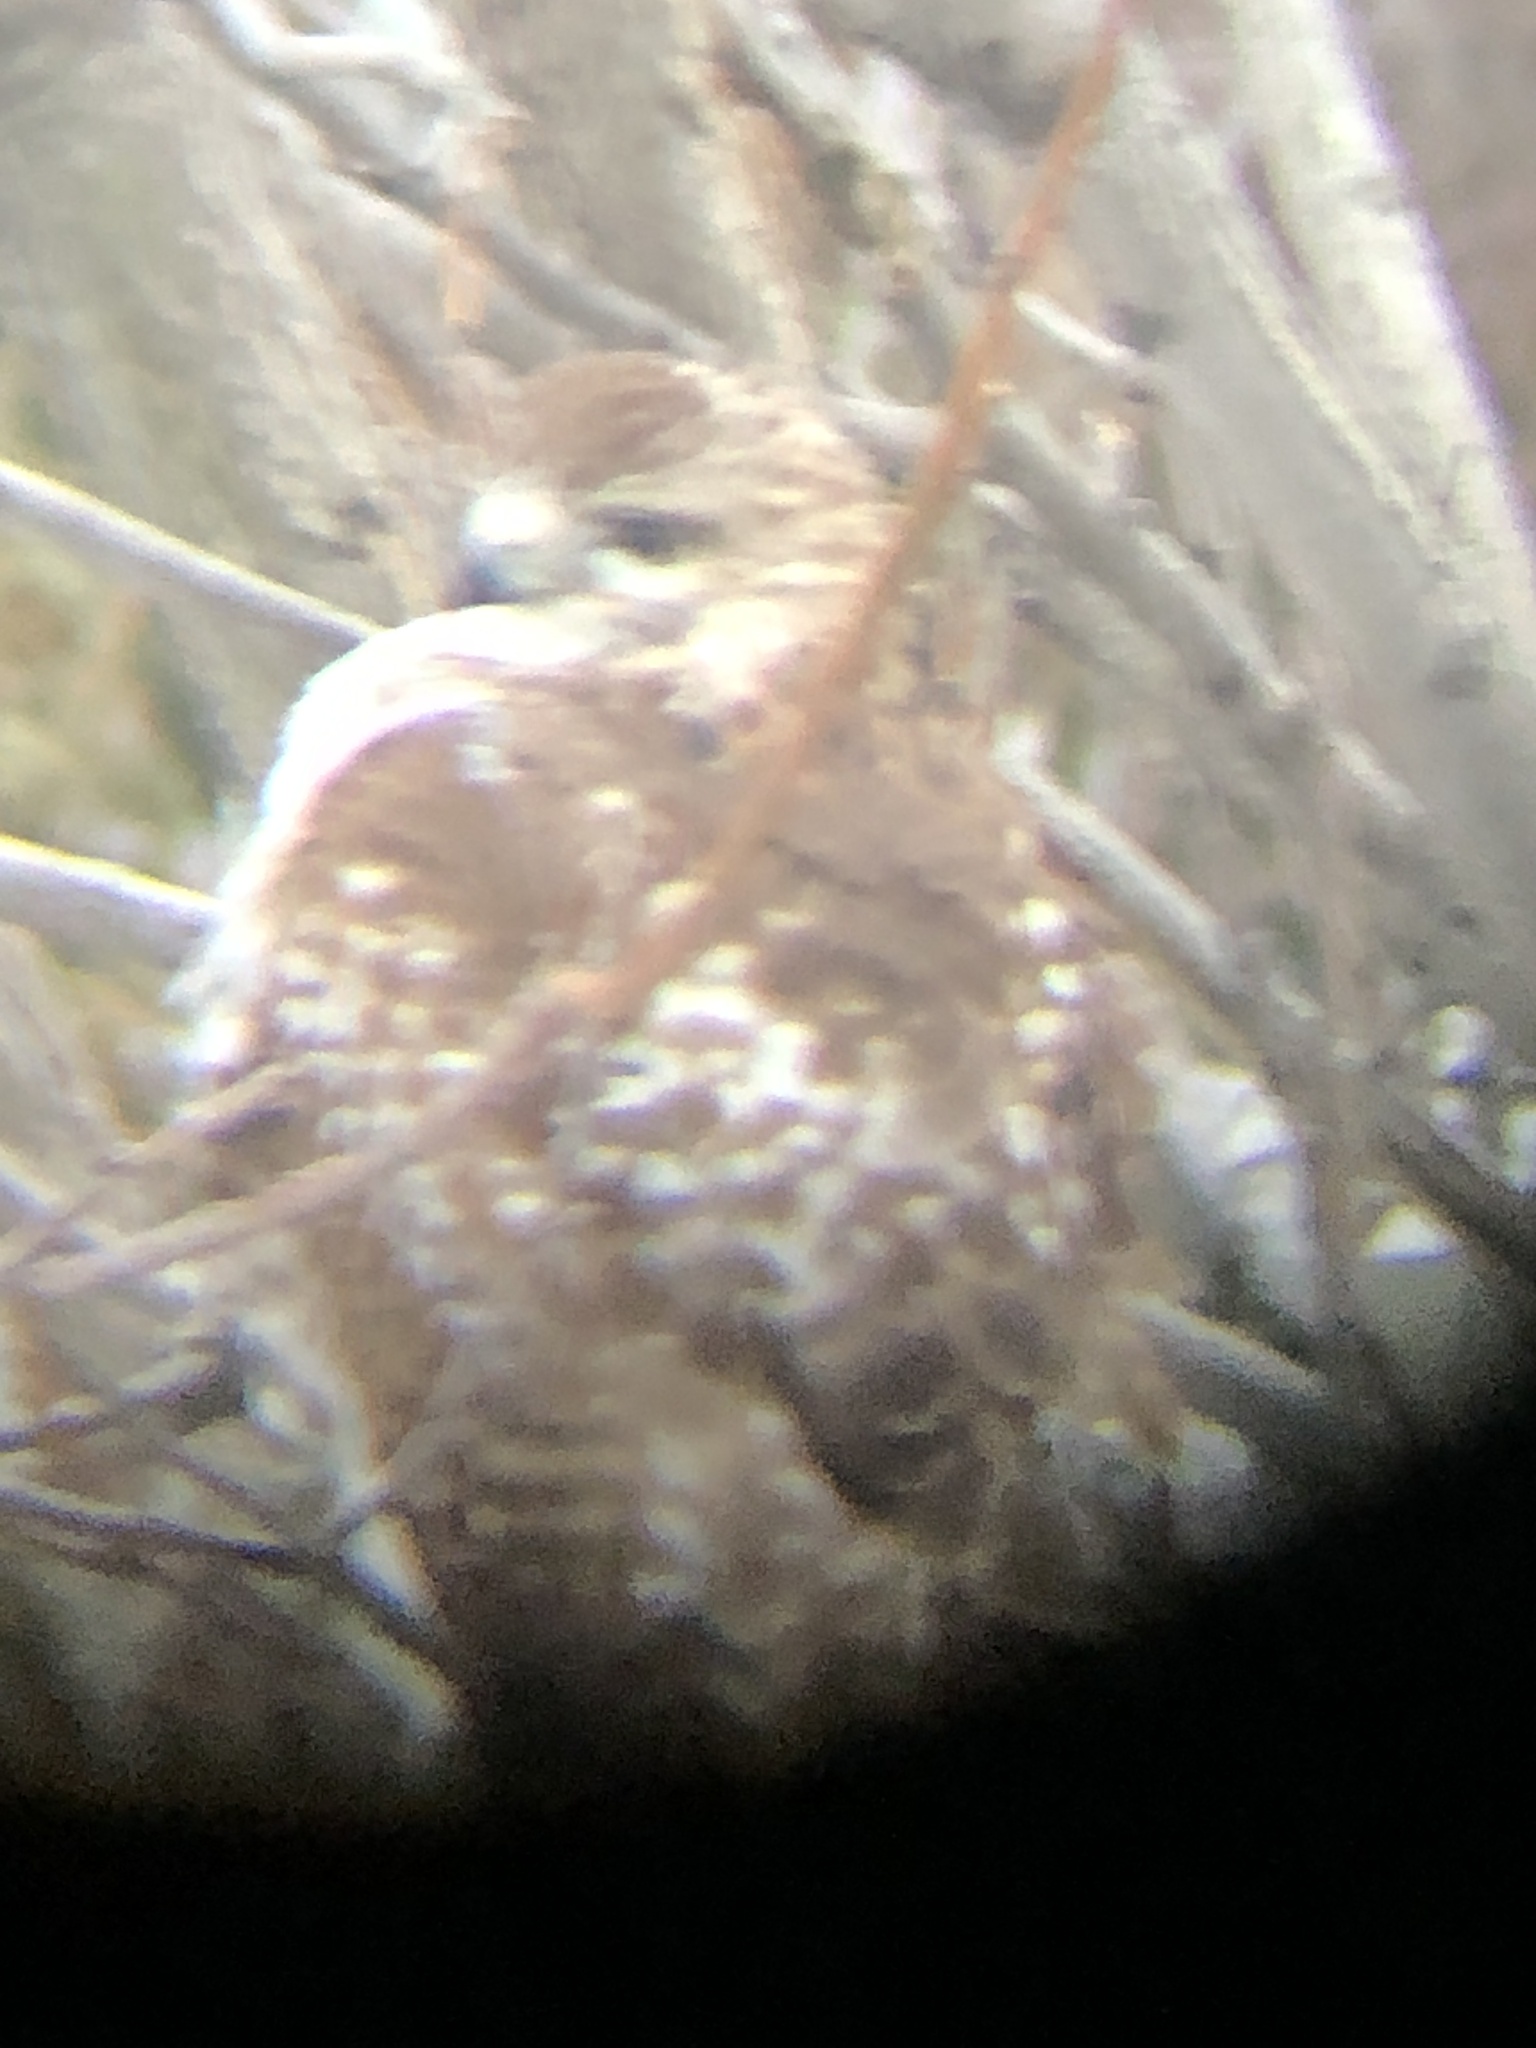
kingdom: Animalia
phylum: Chordata
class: Aves
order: Accipitriformes
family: Accipitridae
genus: Buteo
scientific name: Buteo jamaicensis
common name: Red-tailed hawk
